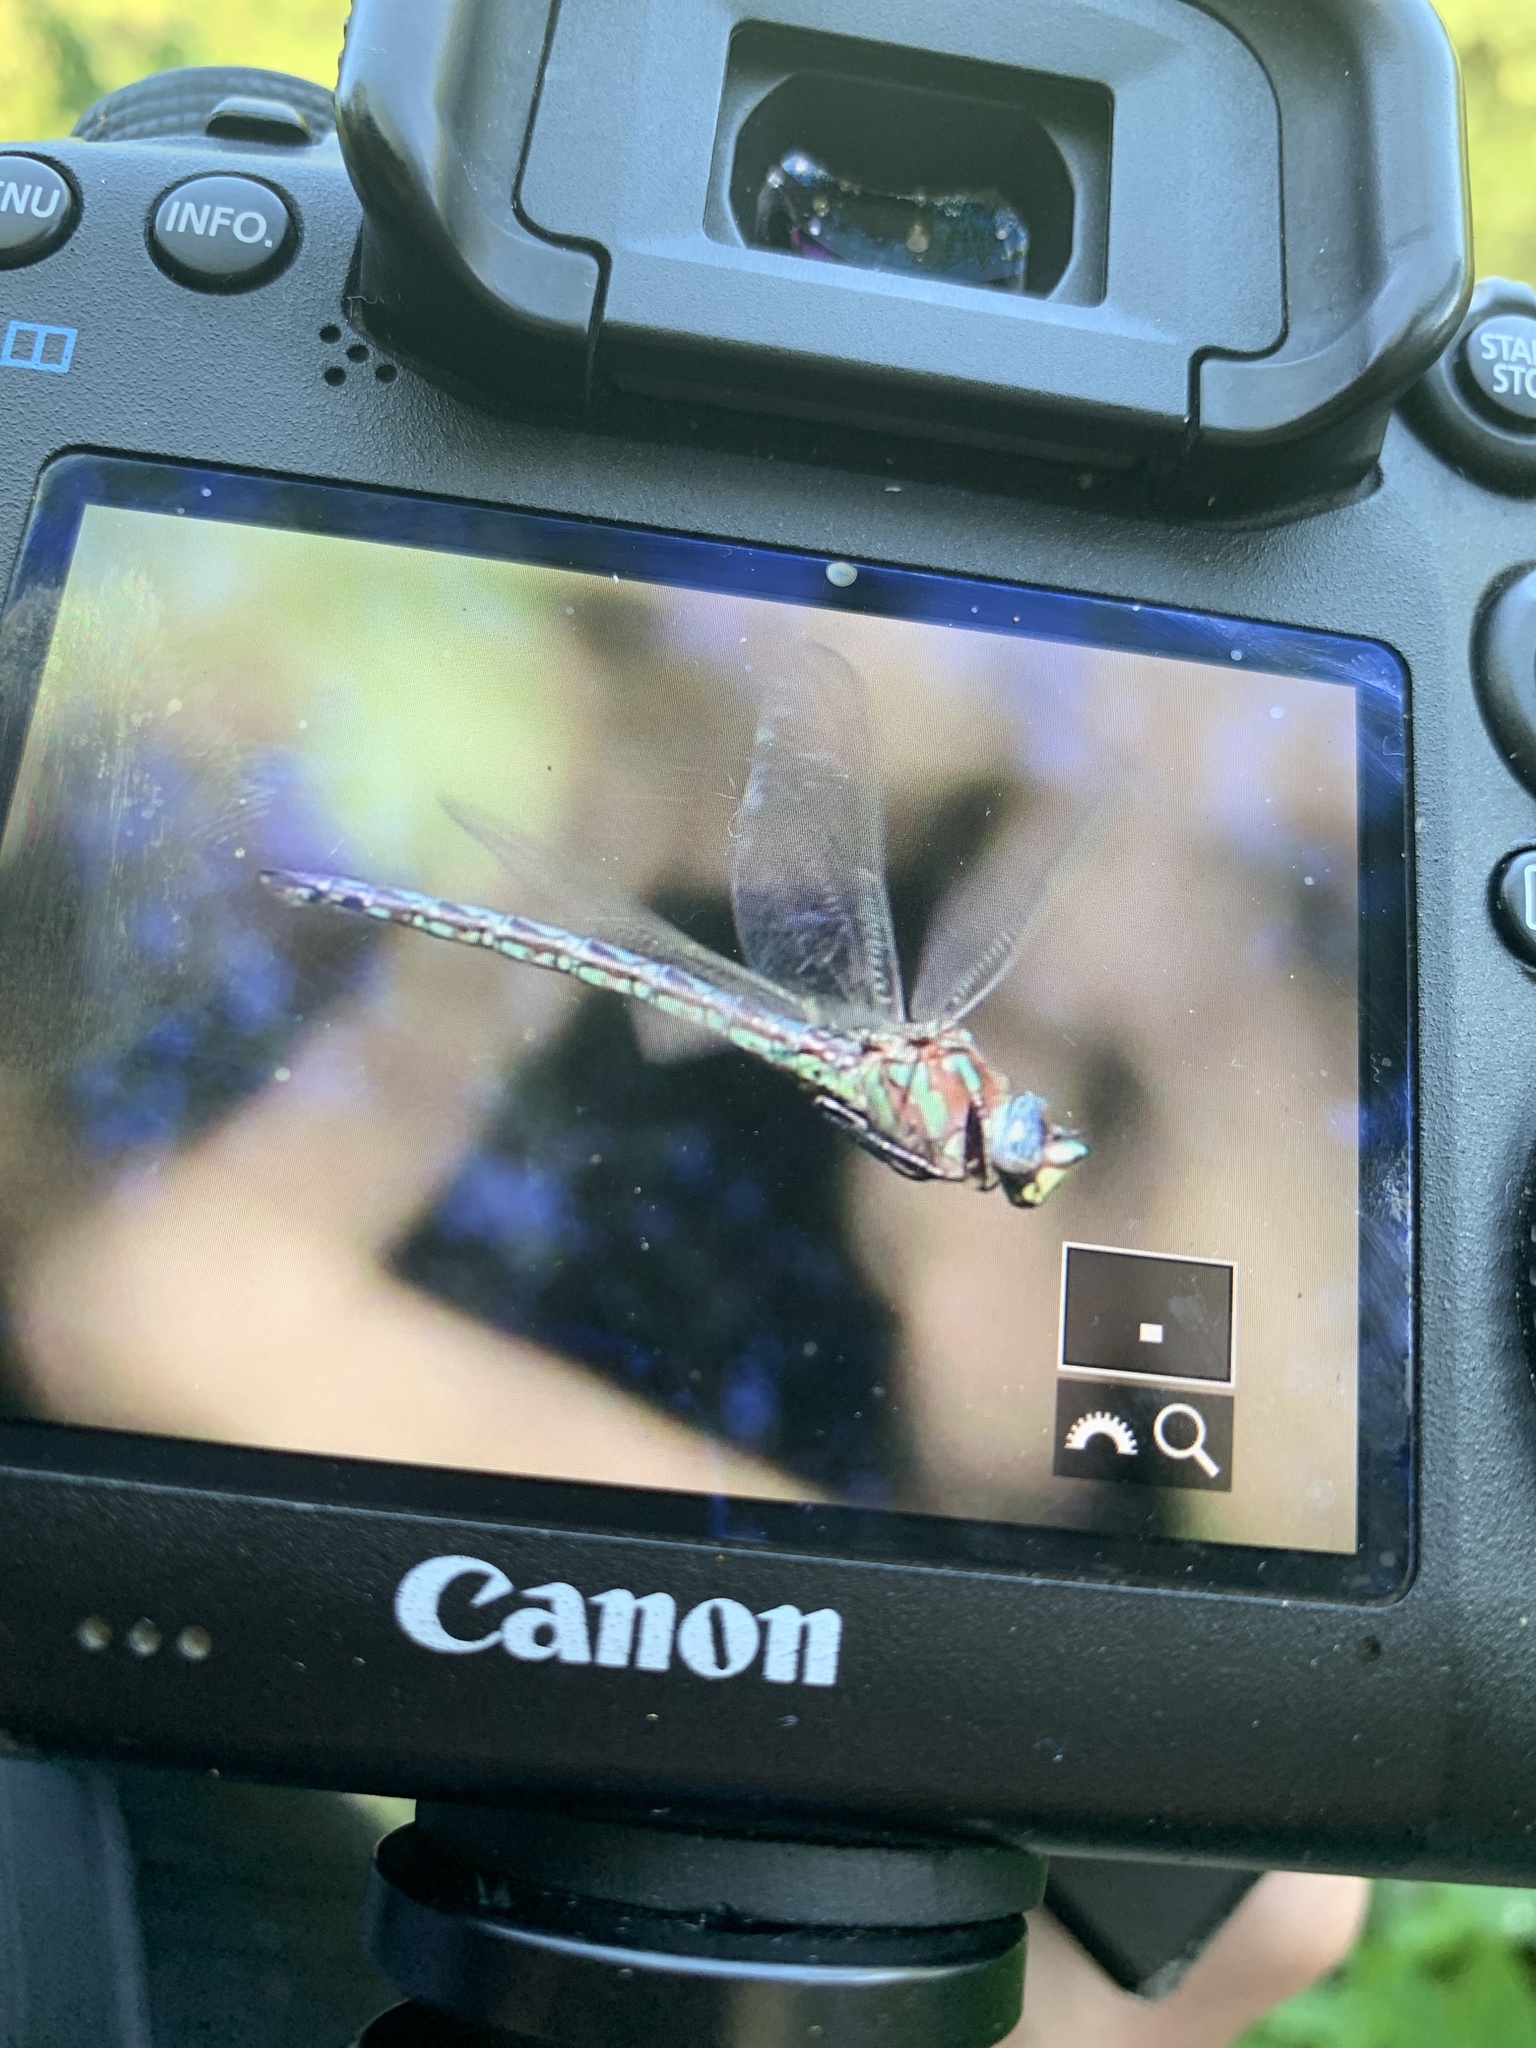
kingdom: Animalia
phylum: Arthropoda
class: Insecta
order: Odonata
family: Aeshnidae
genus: Nasiaeschna
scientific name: Nasiaeschna pentacantha
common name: Cyrano darner
